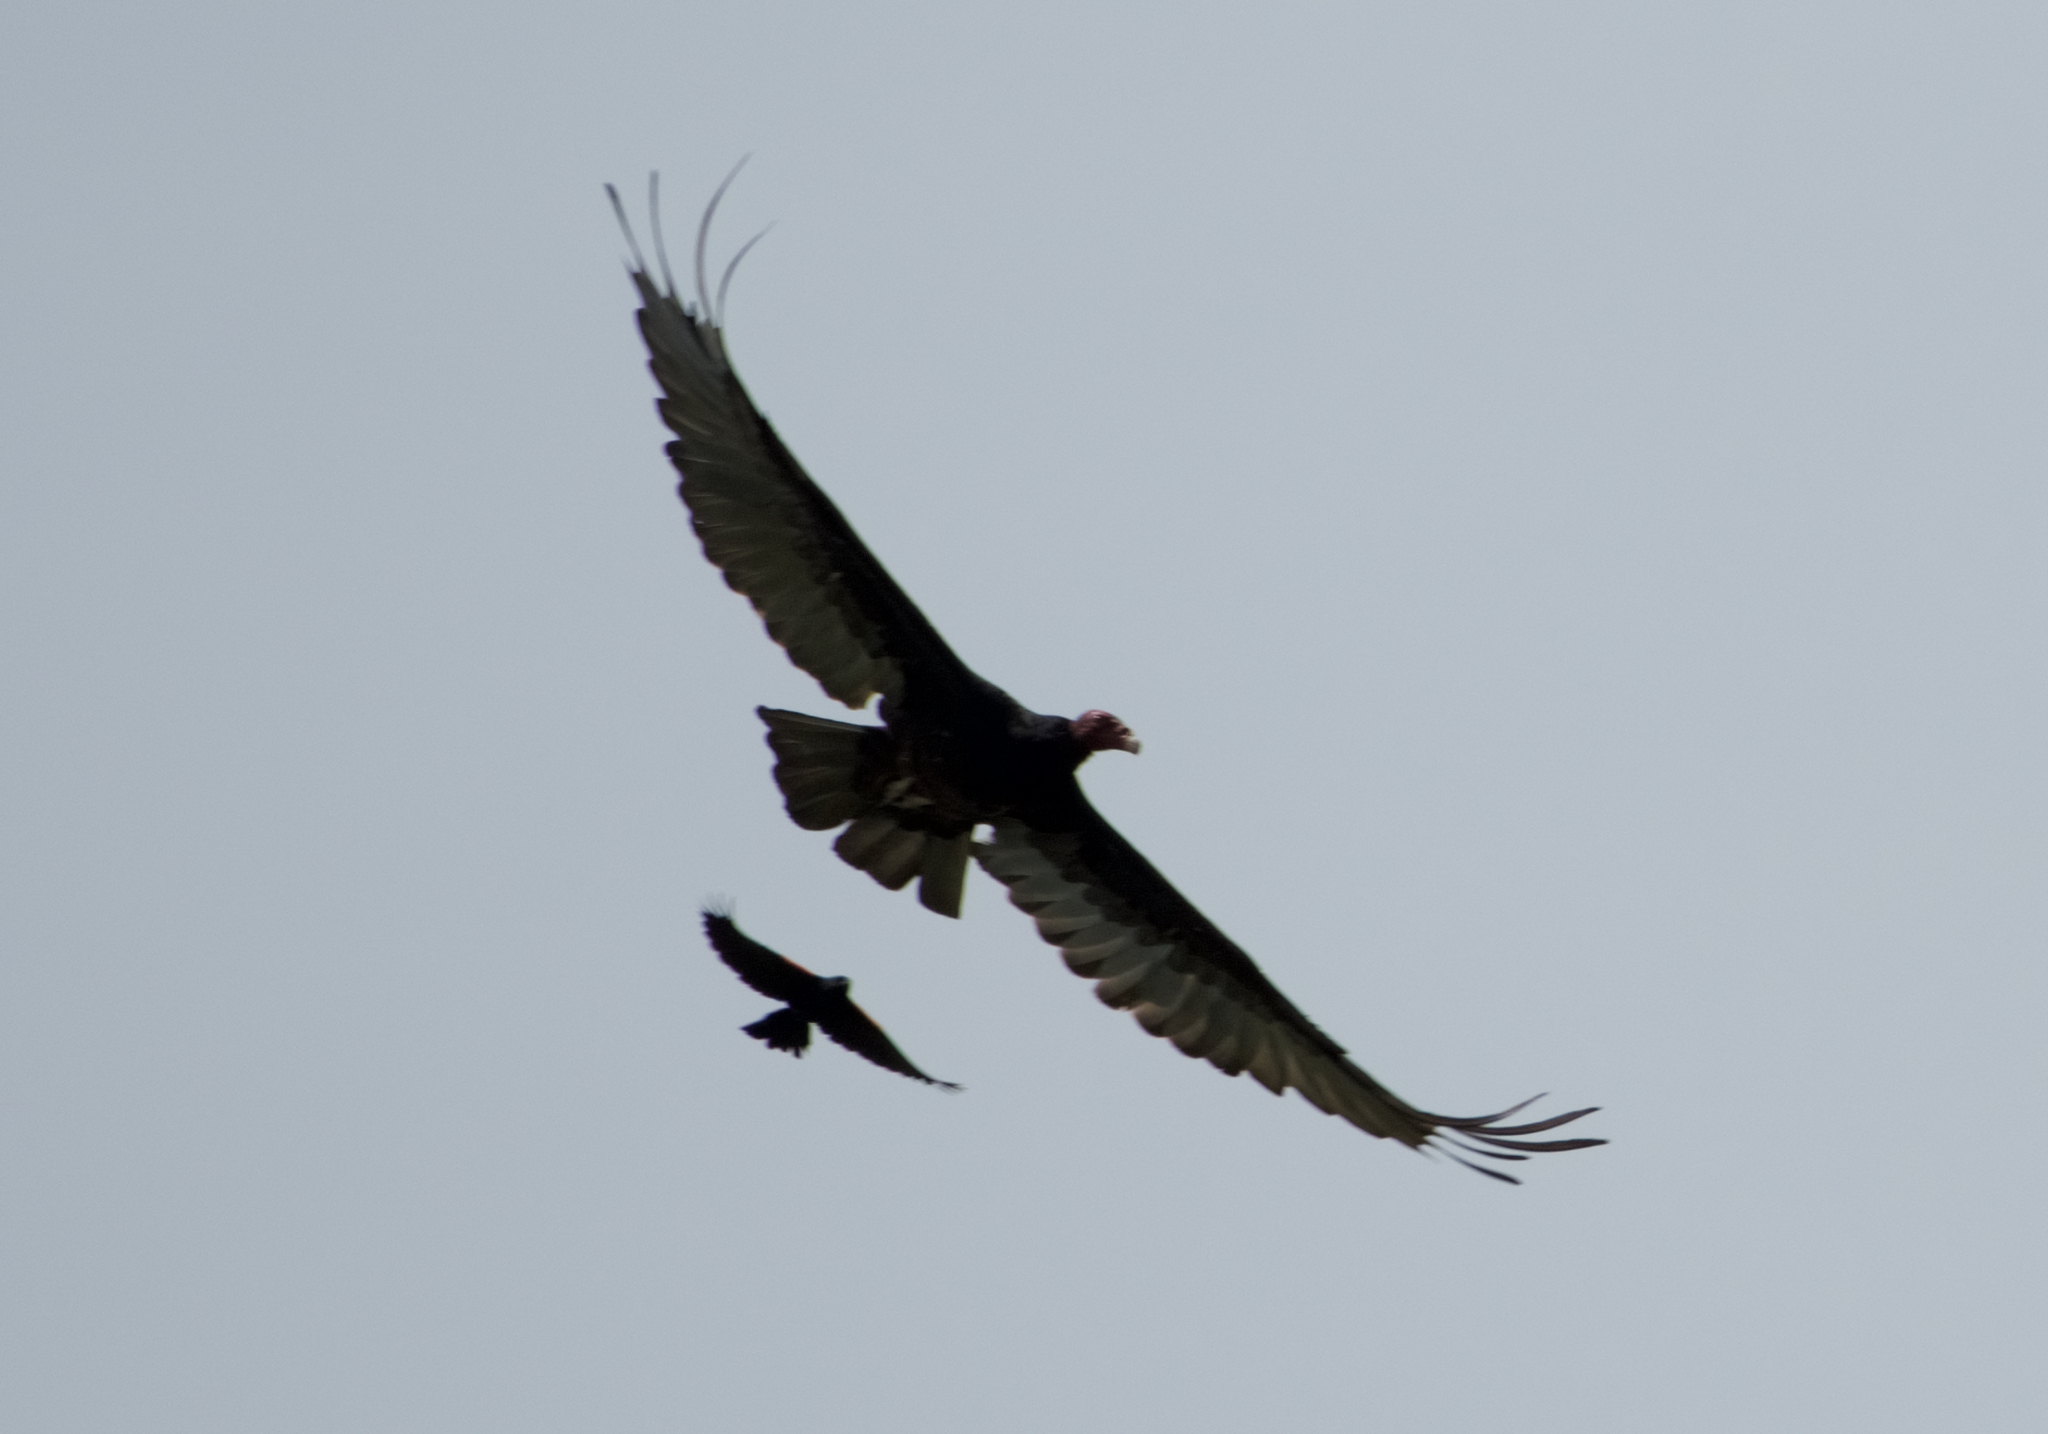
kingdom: Animalia
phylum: Chordata
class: Aves
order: Accipitriformes
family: Cathartidae
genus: Cathartes
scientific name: Cathartes aura
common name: Turkey vulture
